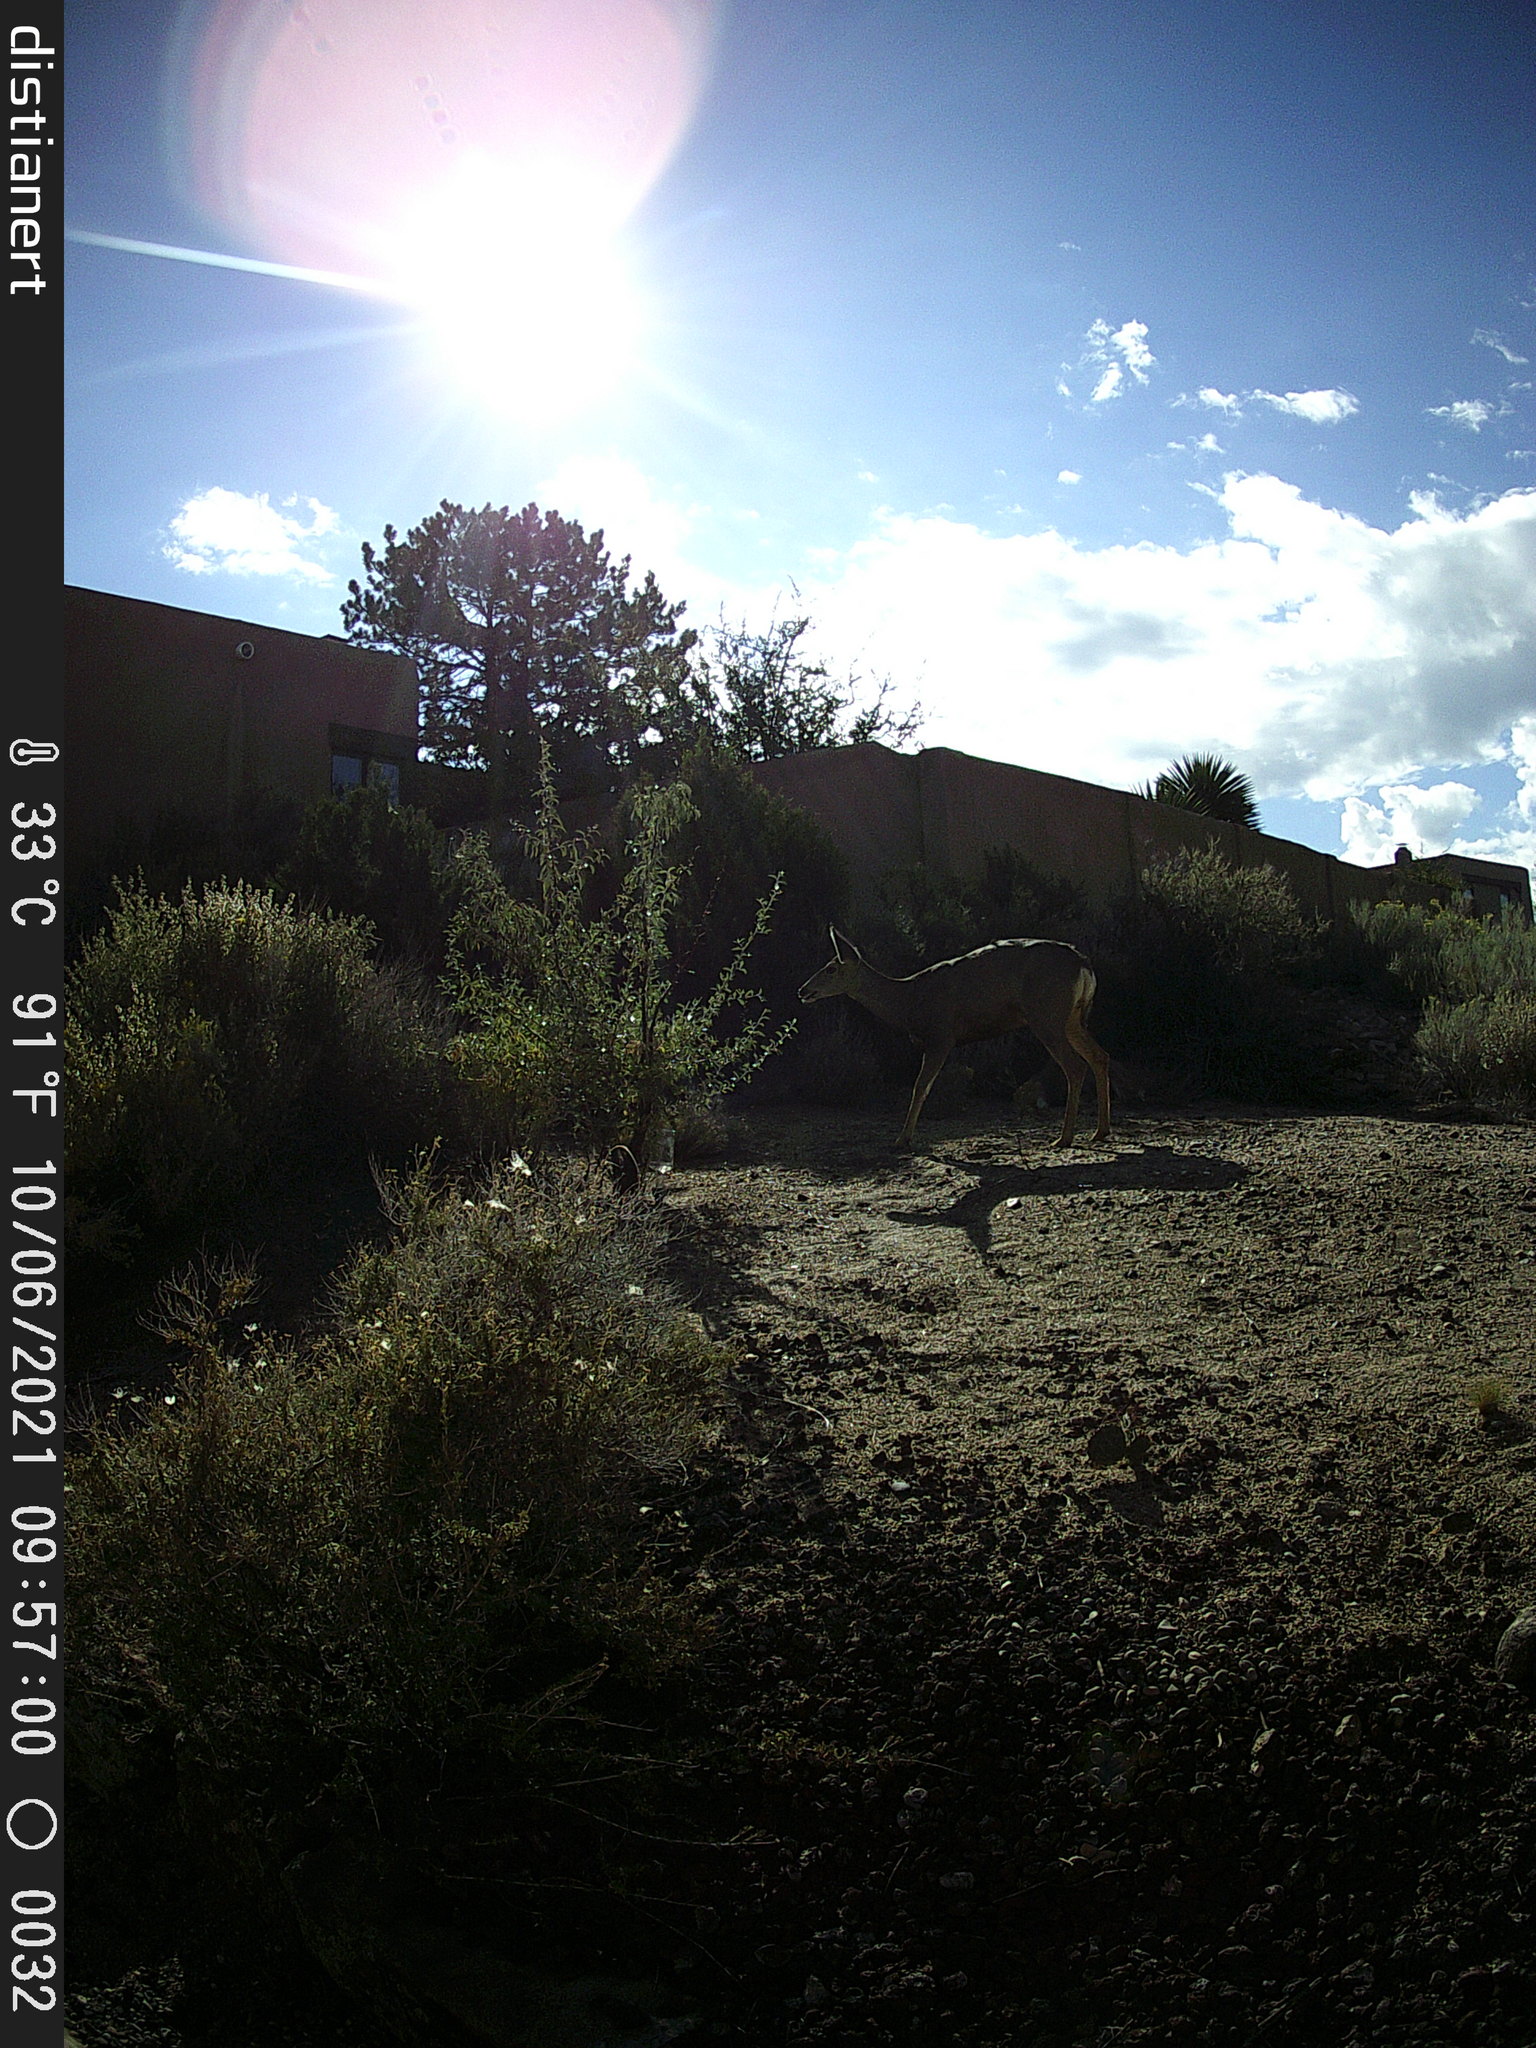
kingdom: Animalia
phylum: Chordata
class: Mammalia
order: Artiodactyla
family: Cervidae
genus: Odocoileus
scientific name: Odocoileus hemionus
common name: Mule deer
